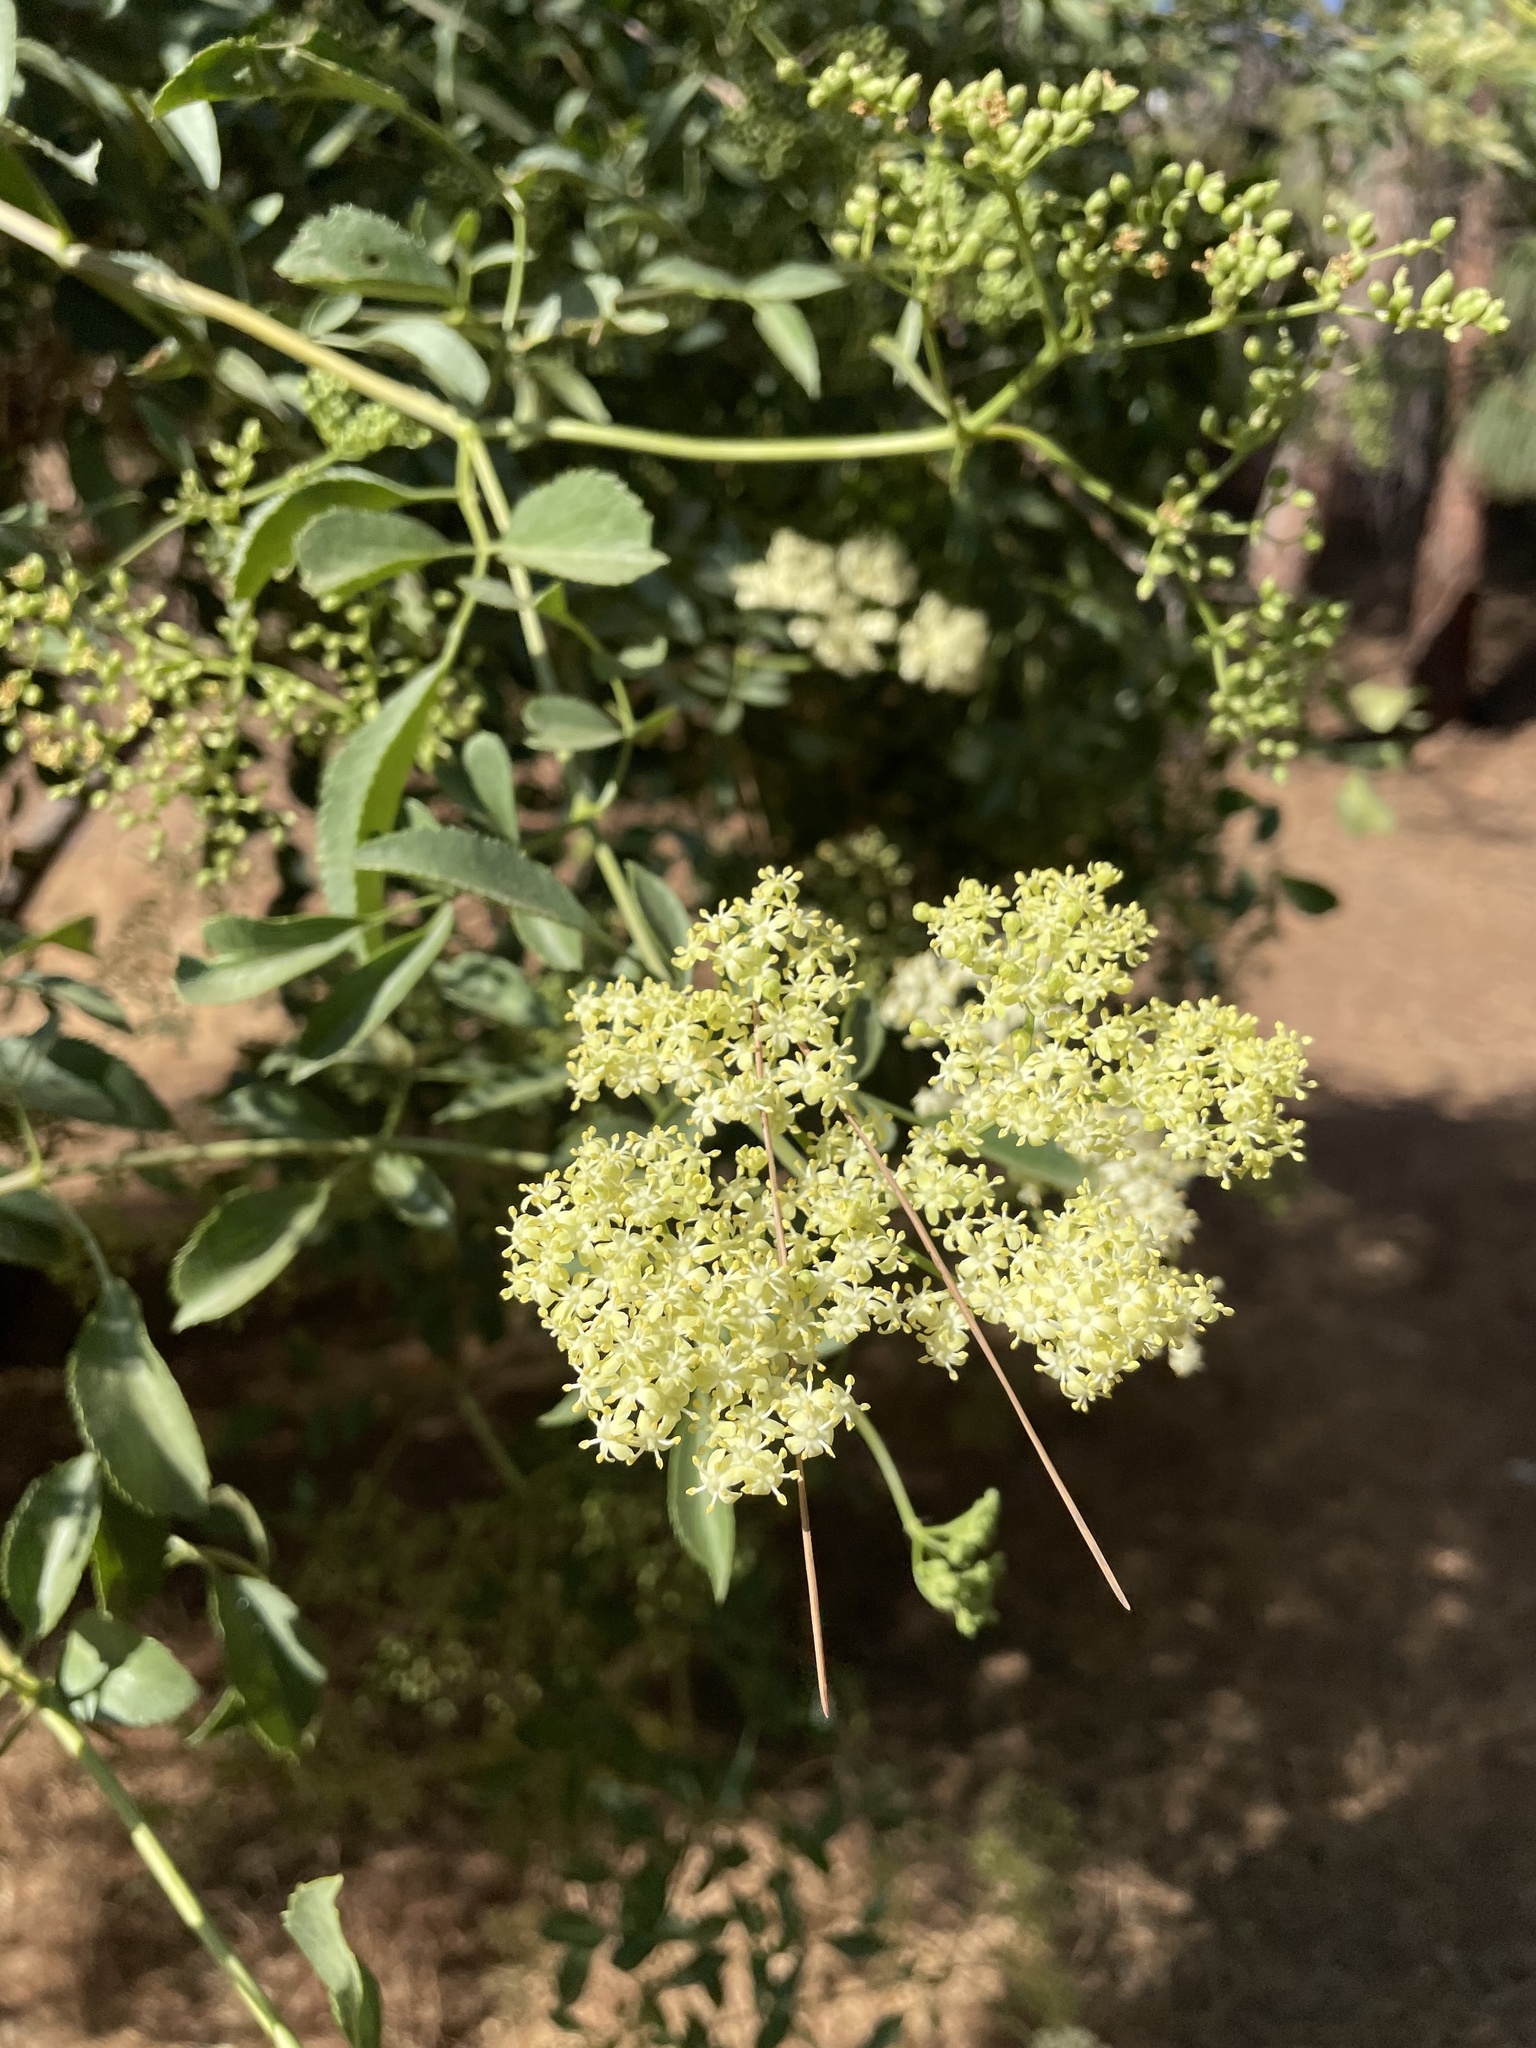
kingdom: Plantae
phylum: Tracheophyta
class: Magnoliopsida
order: Dipsacales
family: Viburnaceae
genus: Sambucus
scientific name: Sambucus cerulea
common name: Blue elder
